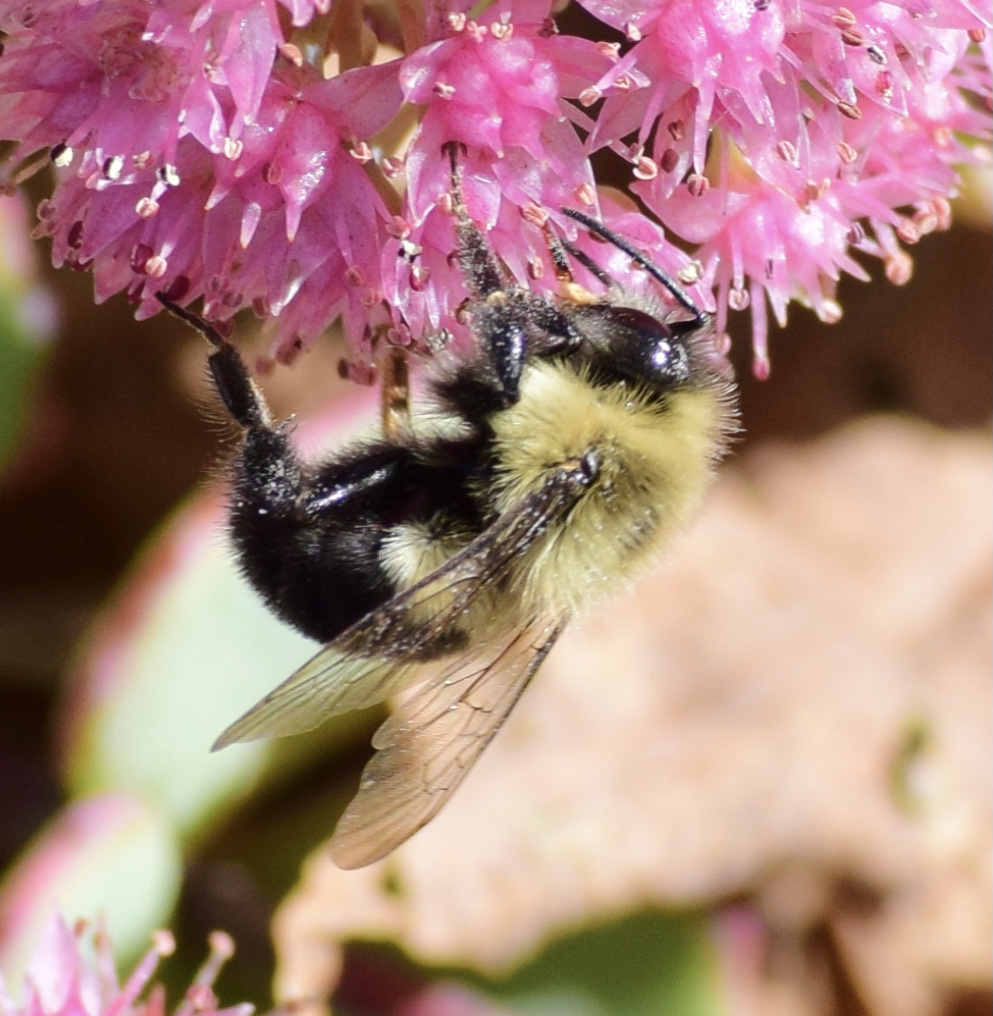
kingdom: Animalia
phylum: Arthropoda
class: Insecta
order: Hymenoptera
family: Apidae
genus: Bombus
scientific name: Bombus impatiens
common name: Common eastern bumble bee
